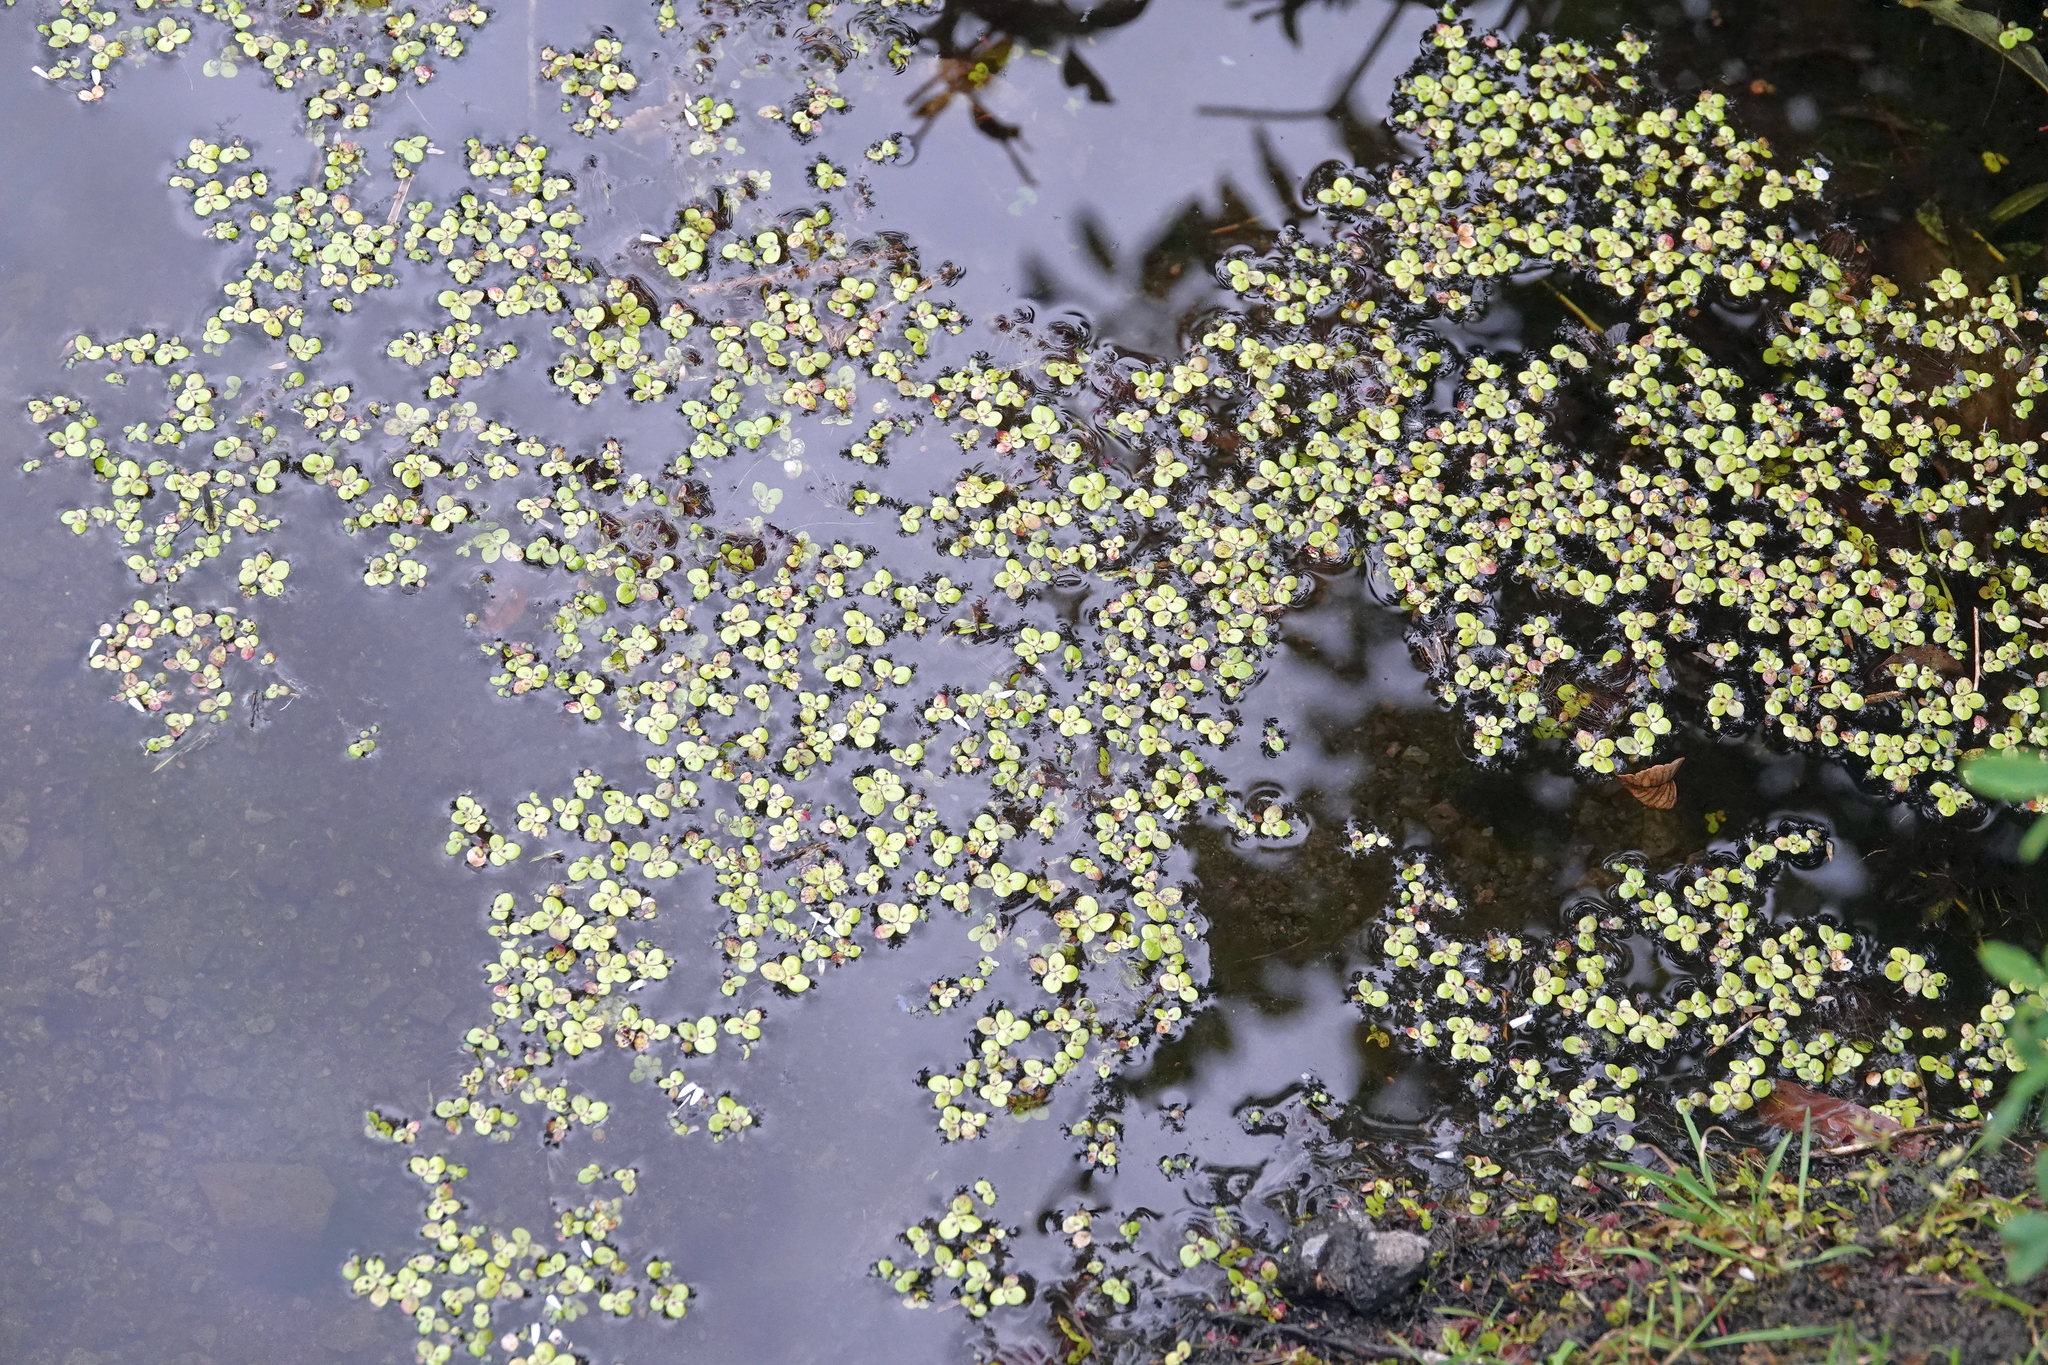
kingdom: Plantae
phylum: Tracheophyta
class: Liliopsida
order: Alismatales
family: Araceae
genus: Lemna
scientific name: Lemna minor
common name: Common duckweed
